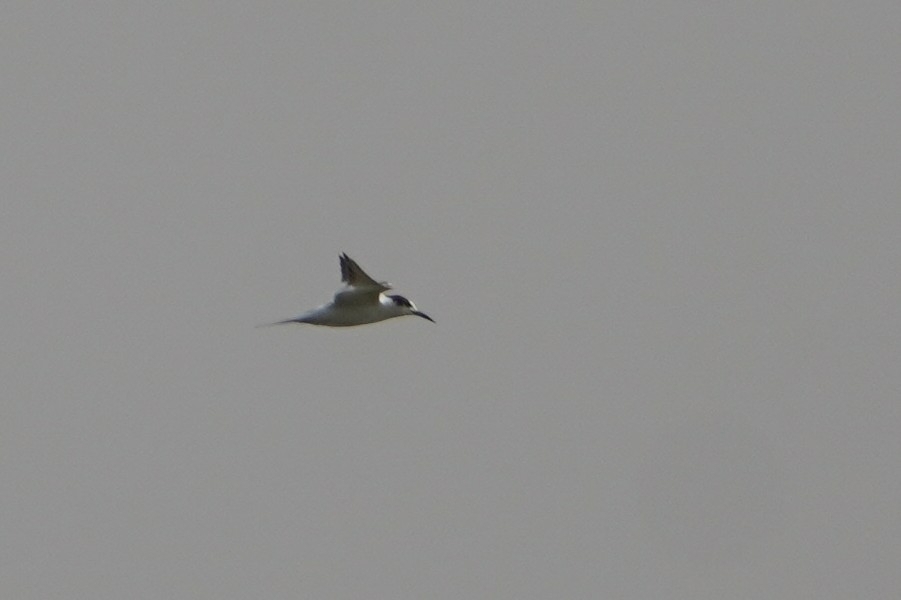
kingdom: Animalia
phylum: Chordata
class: Aves
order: Charadriiformes
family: Laridae
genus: Thalasseus
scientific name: Thalasseus sandvicensis
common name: Sandwich tern
